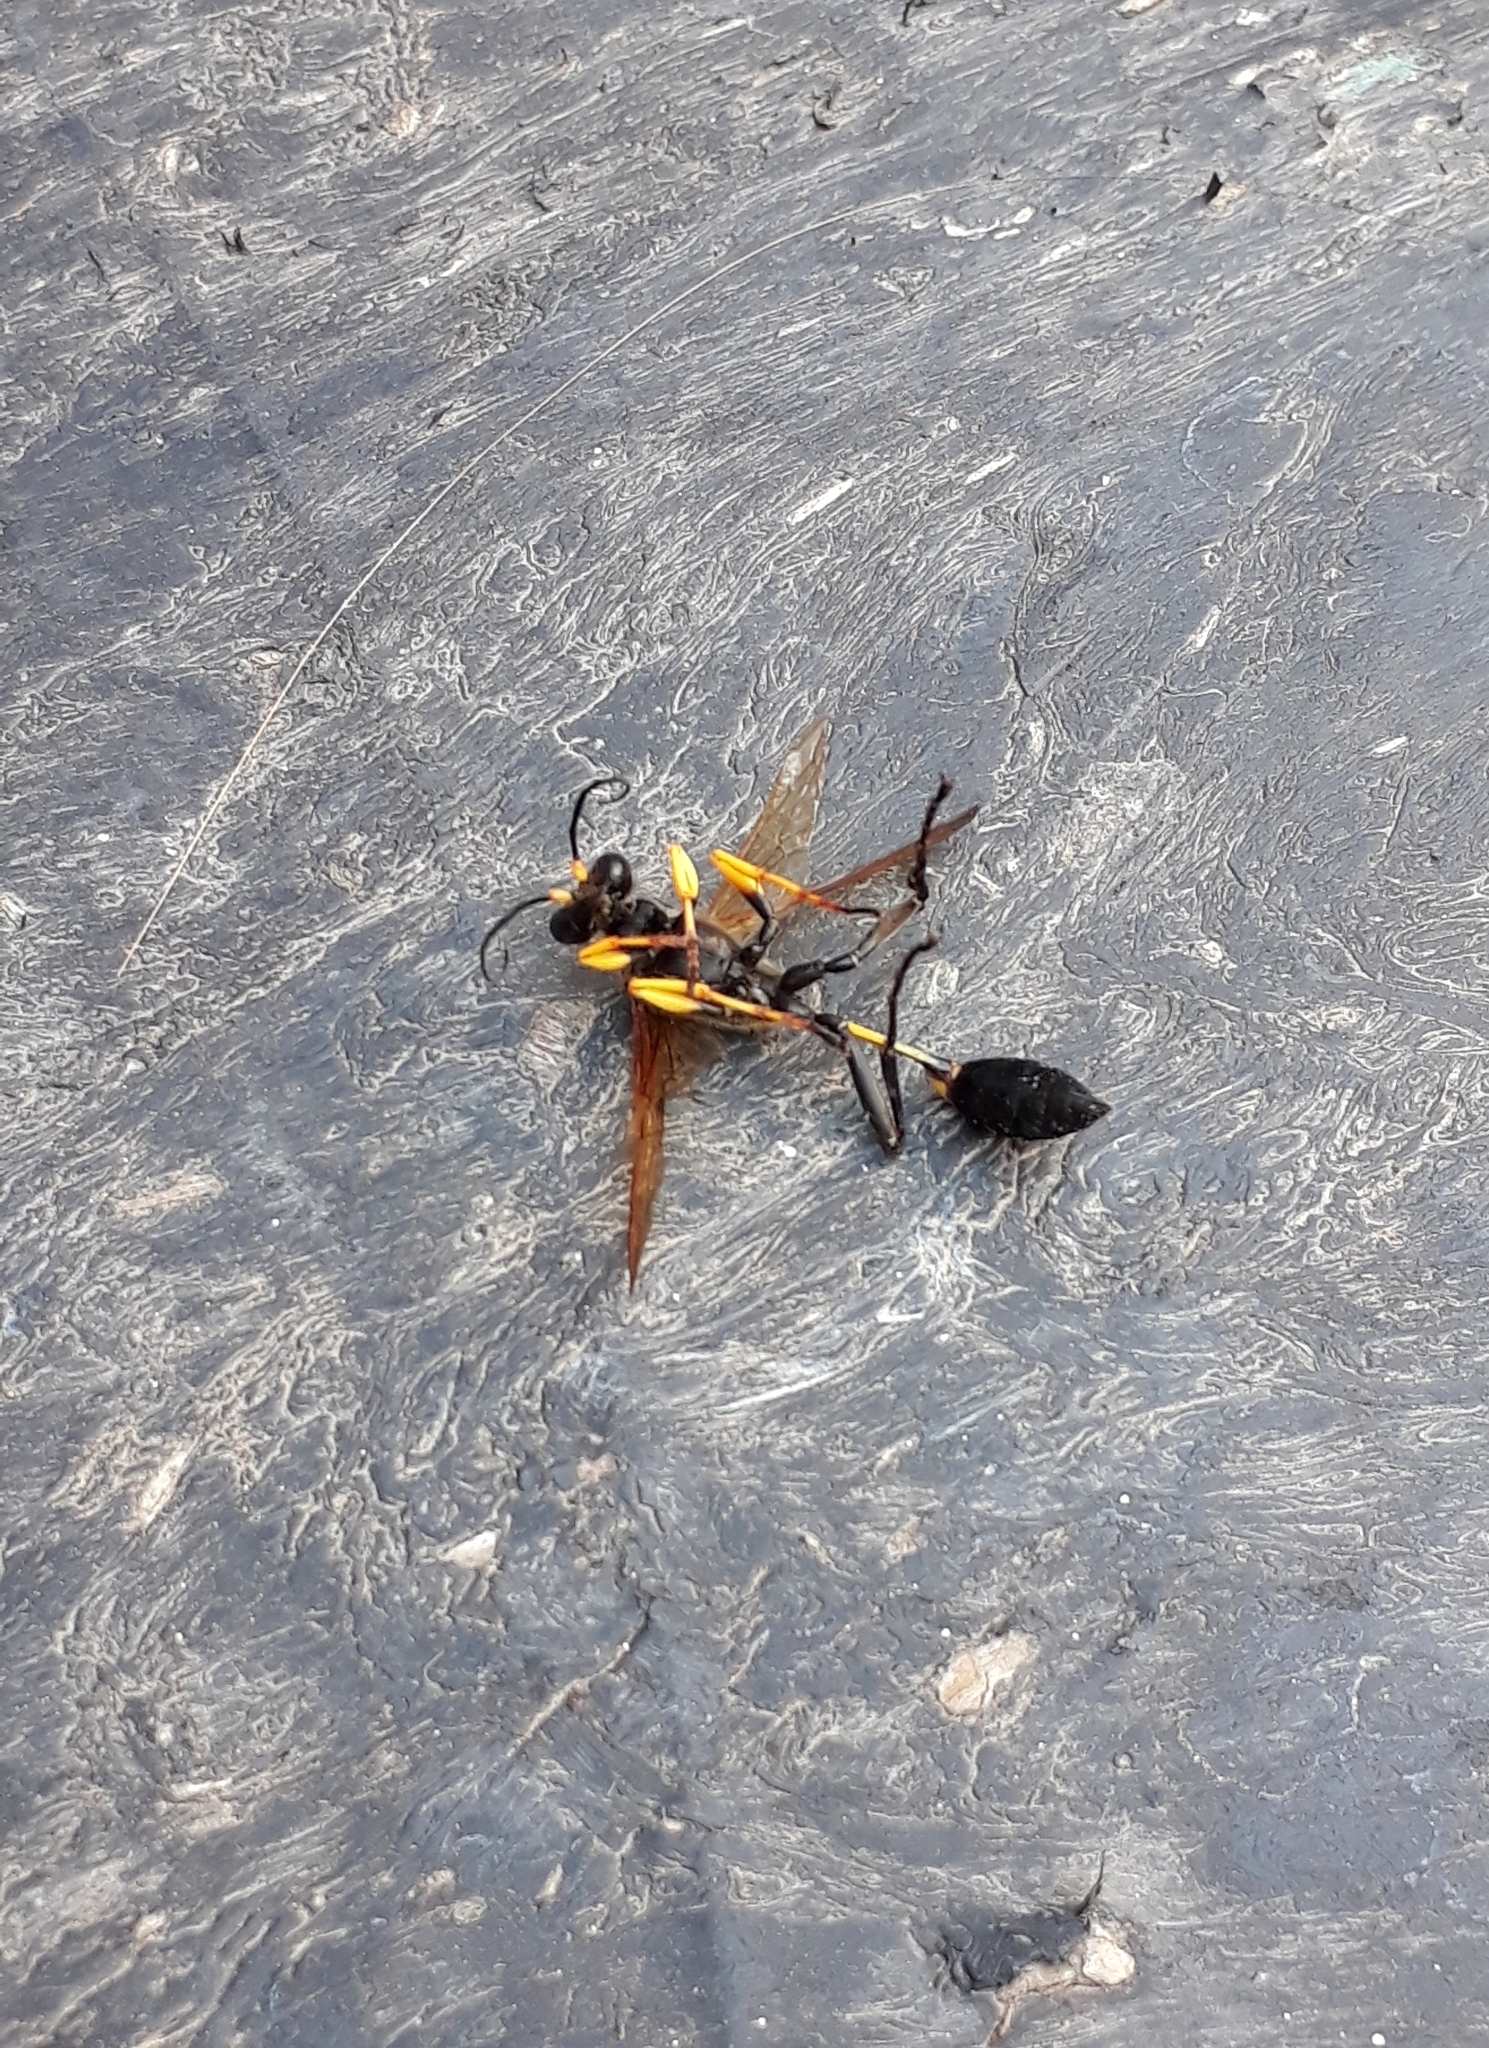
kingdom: Animalia
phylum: Arthropoda
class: Insecta
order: Hymenoptera
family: Sphecidae
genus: Sceliphron
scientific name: Sceliphron asiaticum
